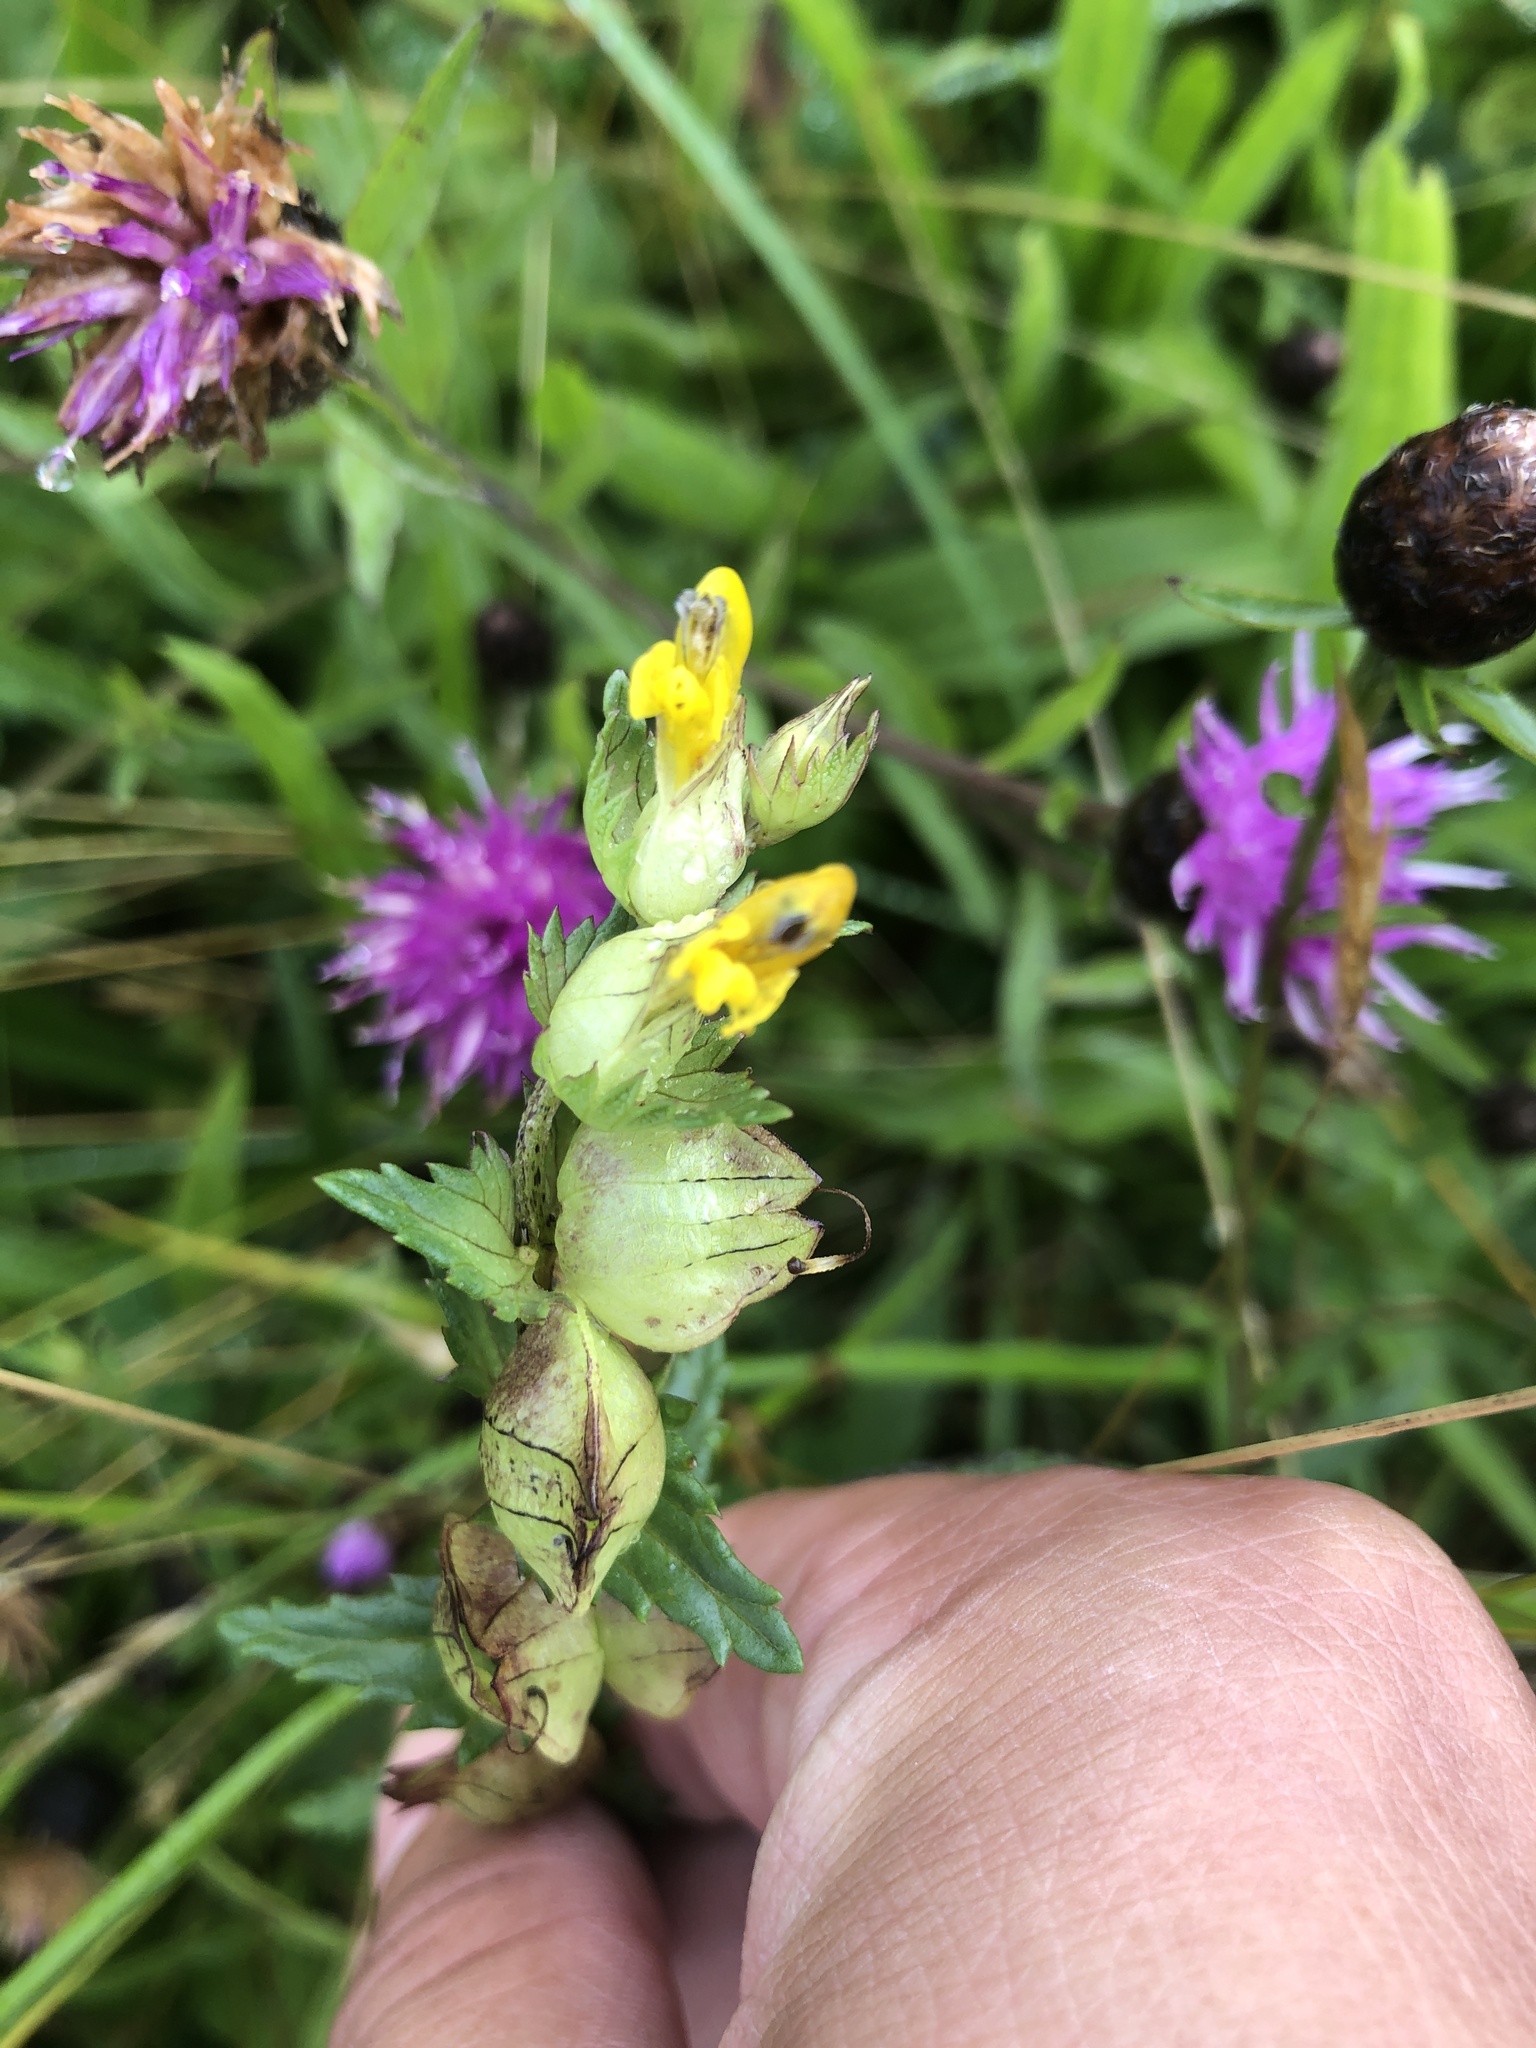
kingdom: Plantae
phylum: Tracheophyta
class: Magnoliopsida
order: Lamiales
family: Orobanchaceae
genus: Rhinanthus
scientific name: Rhinanthus minor
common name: Yellow-rattle
